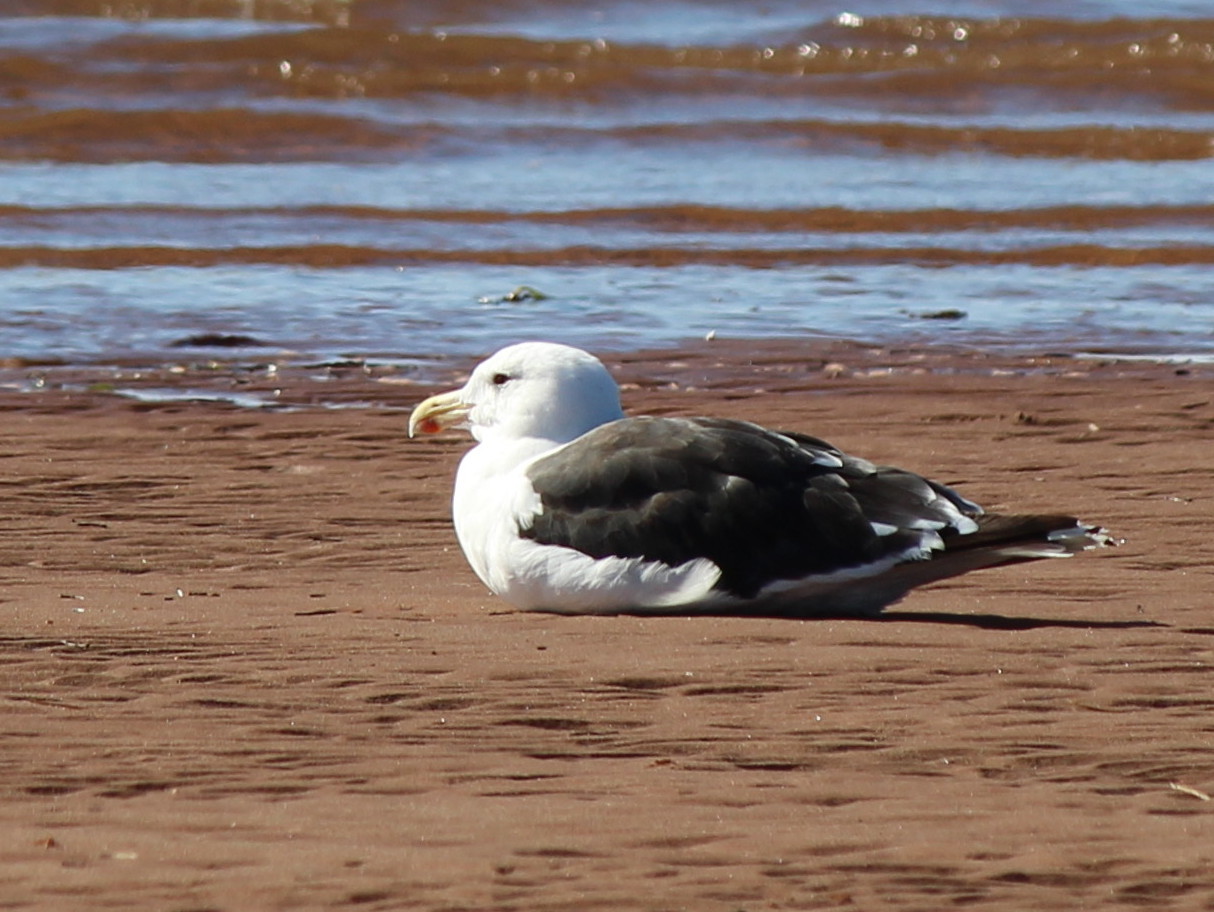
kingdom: Animalia
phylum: Chordata
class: Aves
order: Charadriiformes
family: Laridae
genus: Larus
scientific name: Larus marinus
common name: Great black-backed gull
